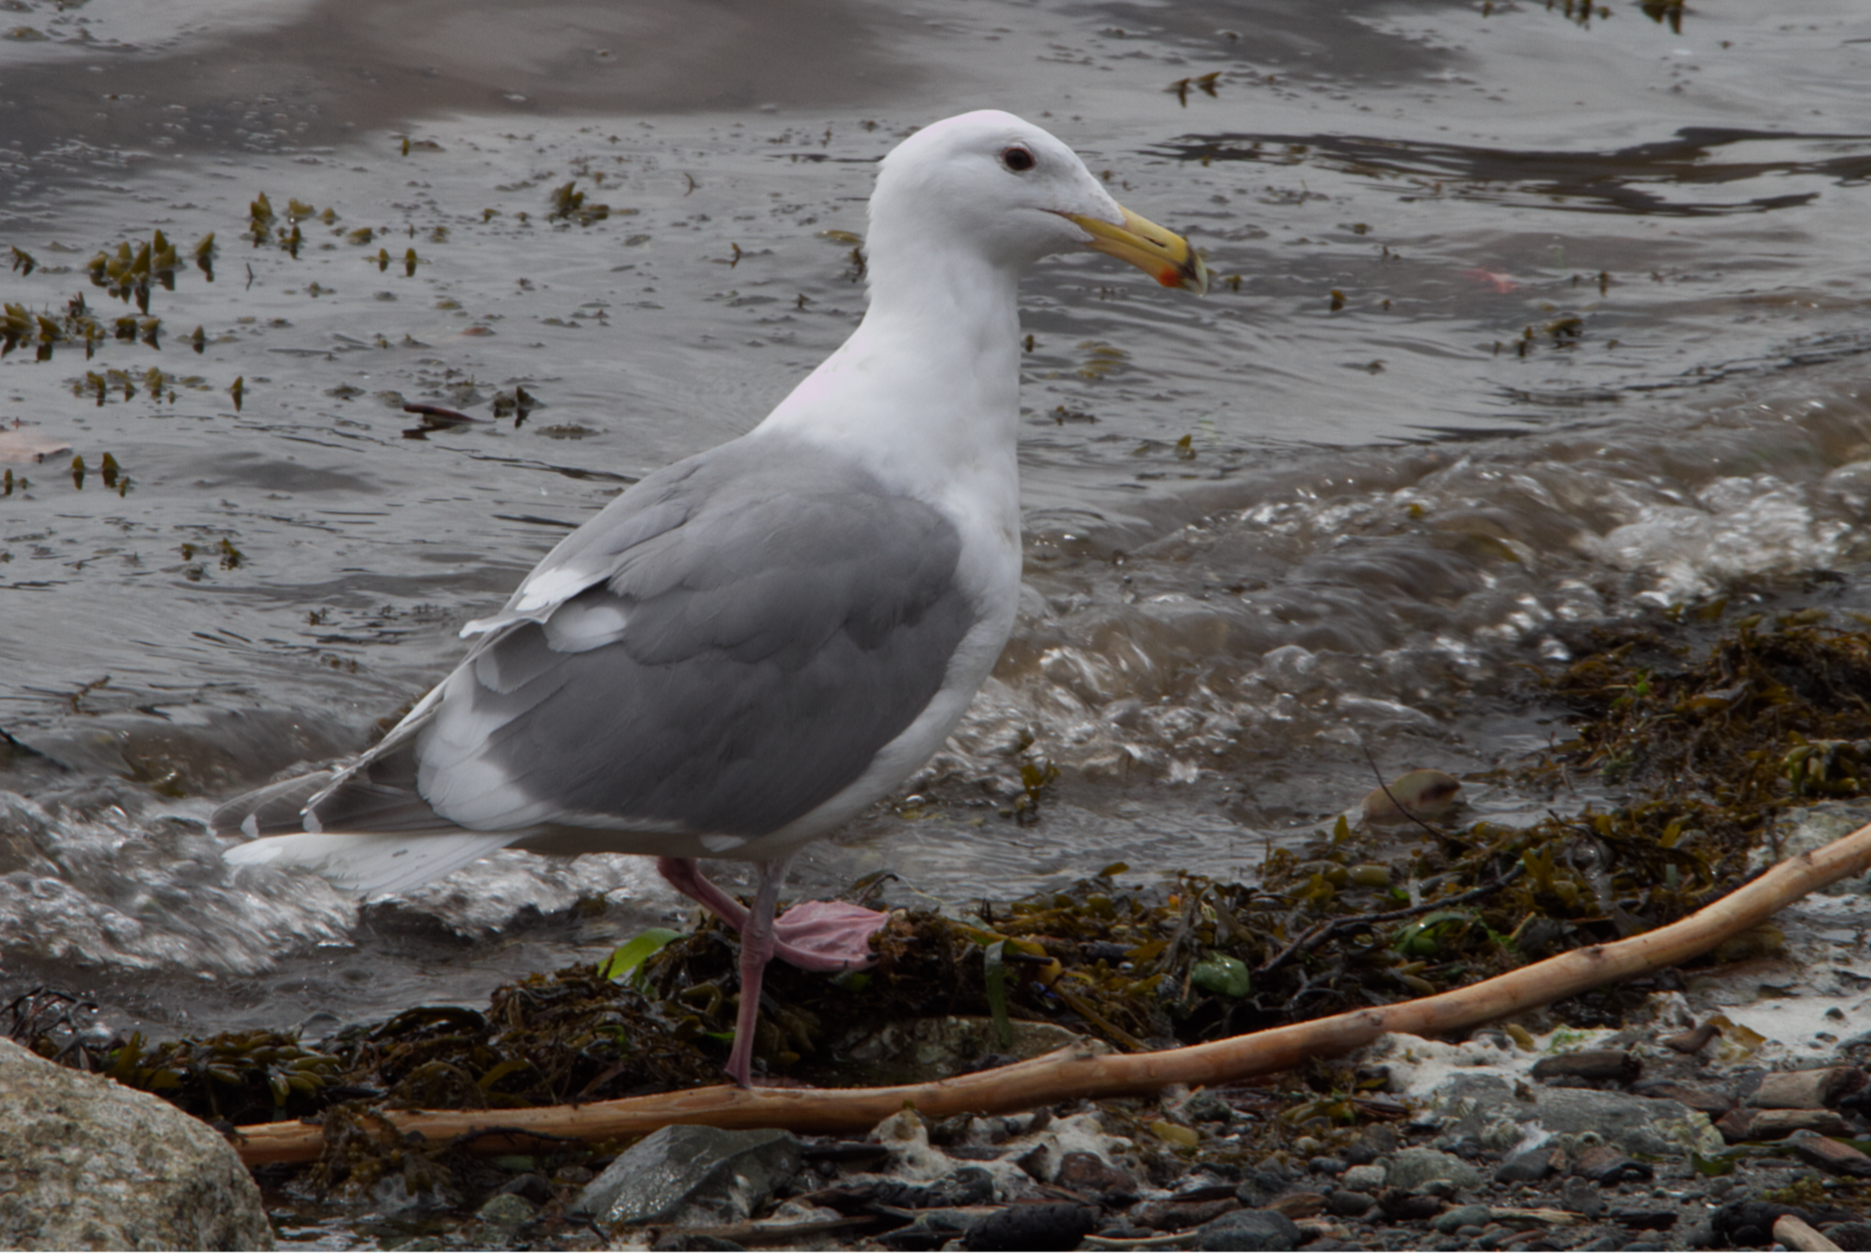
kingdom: Animalia
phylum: Chordata
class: Aves
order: Charadriiformes
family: Laridae
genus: Larus
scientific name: Larus glaucescens
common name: Glaucous-winged gull
